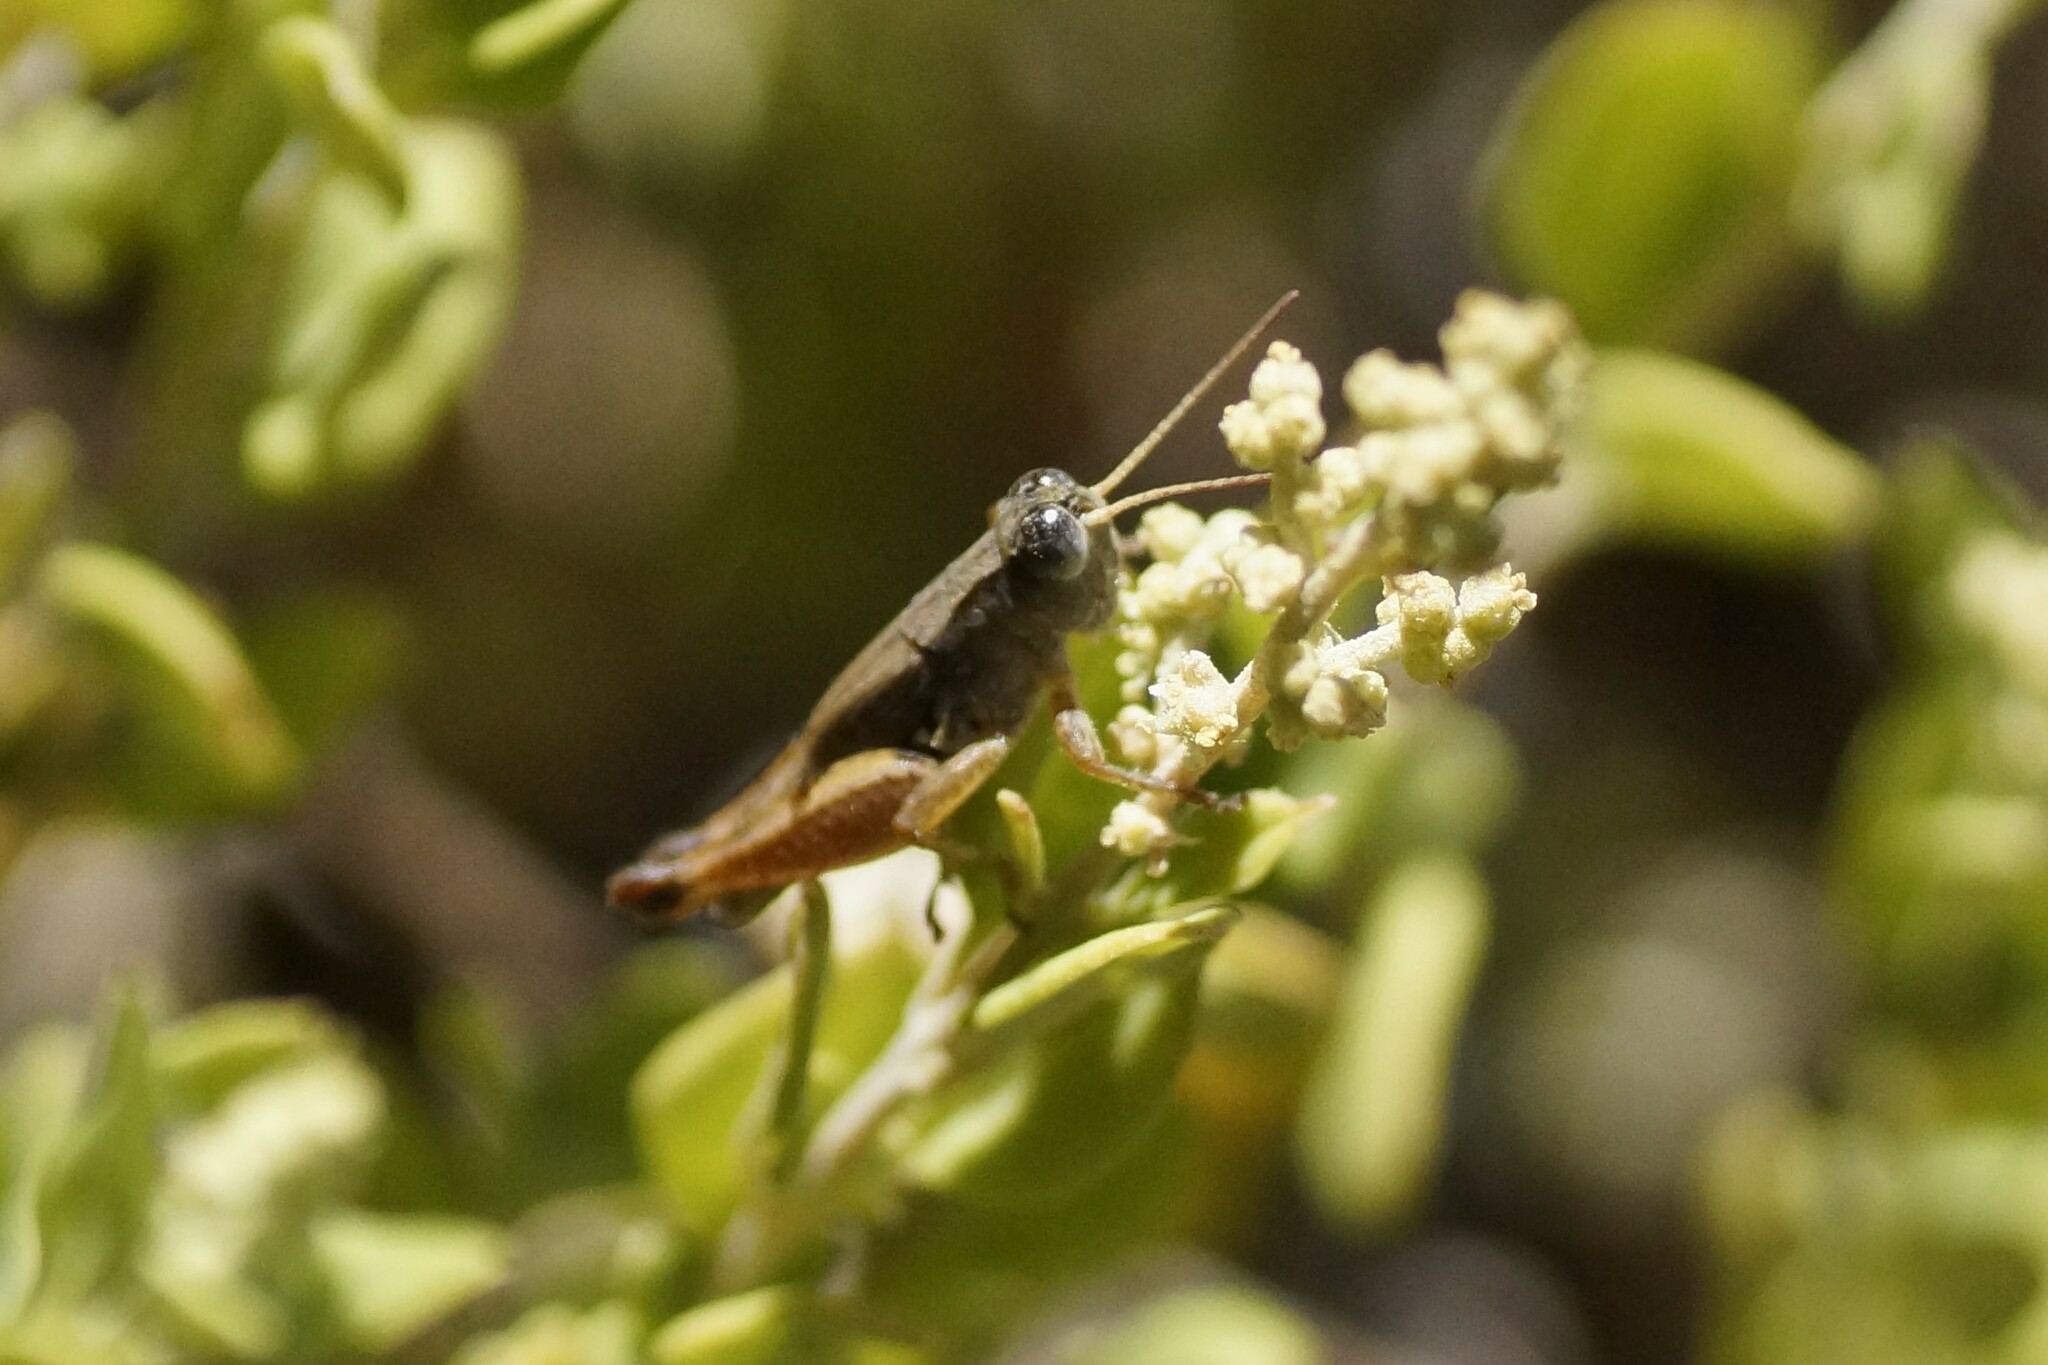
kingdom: Animalia
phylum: Arthropoda
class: Insecta
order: Orthoptera
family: Acrididae
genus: Phaulacridium
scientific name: Phaulacridium vittatum
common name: Wingless grasshopper
